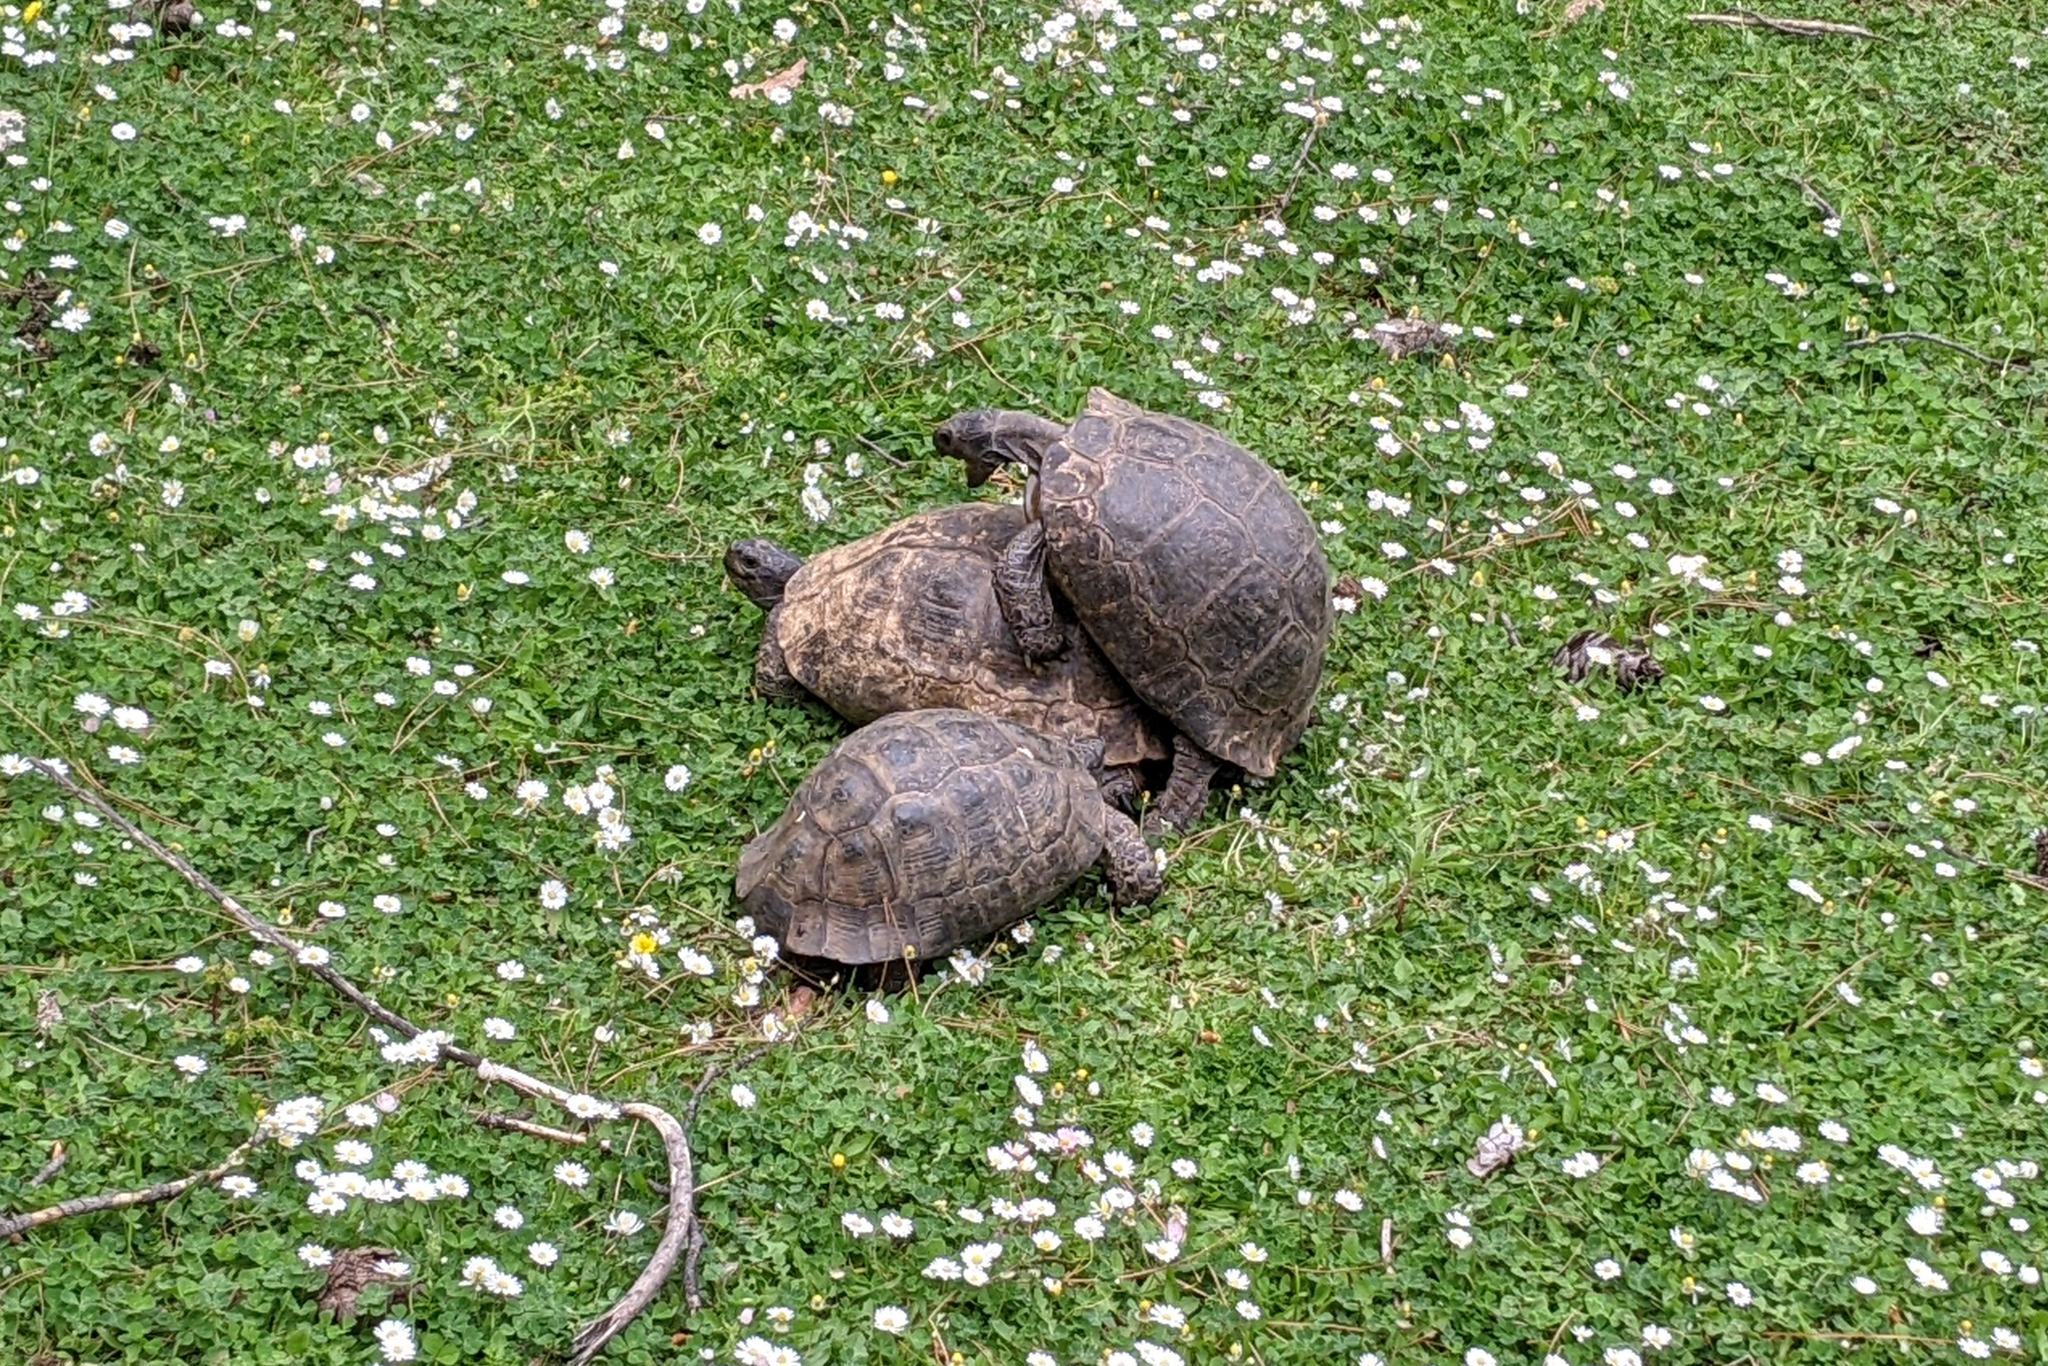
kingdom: Animalia
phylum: Chordata
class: Testudines
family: Testudinidae
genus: Testudo
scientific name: Testudo graeca
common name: Common tortoise
